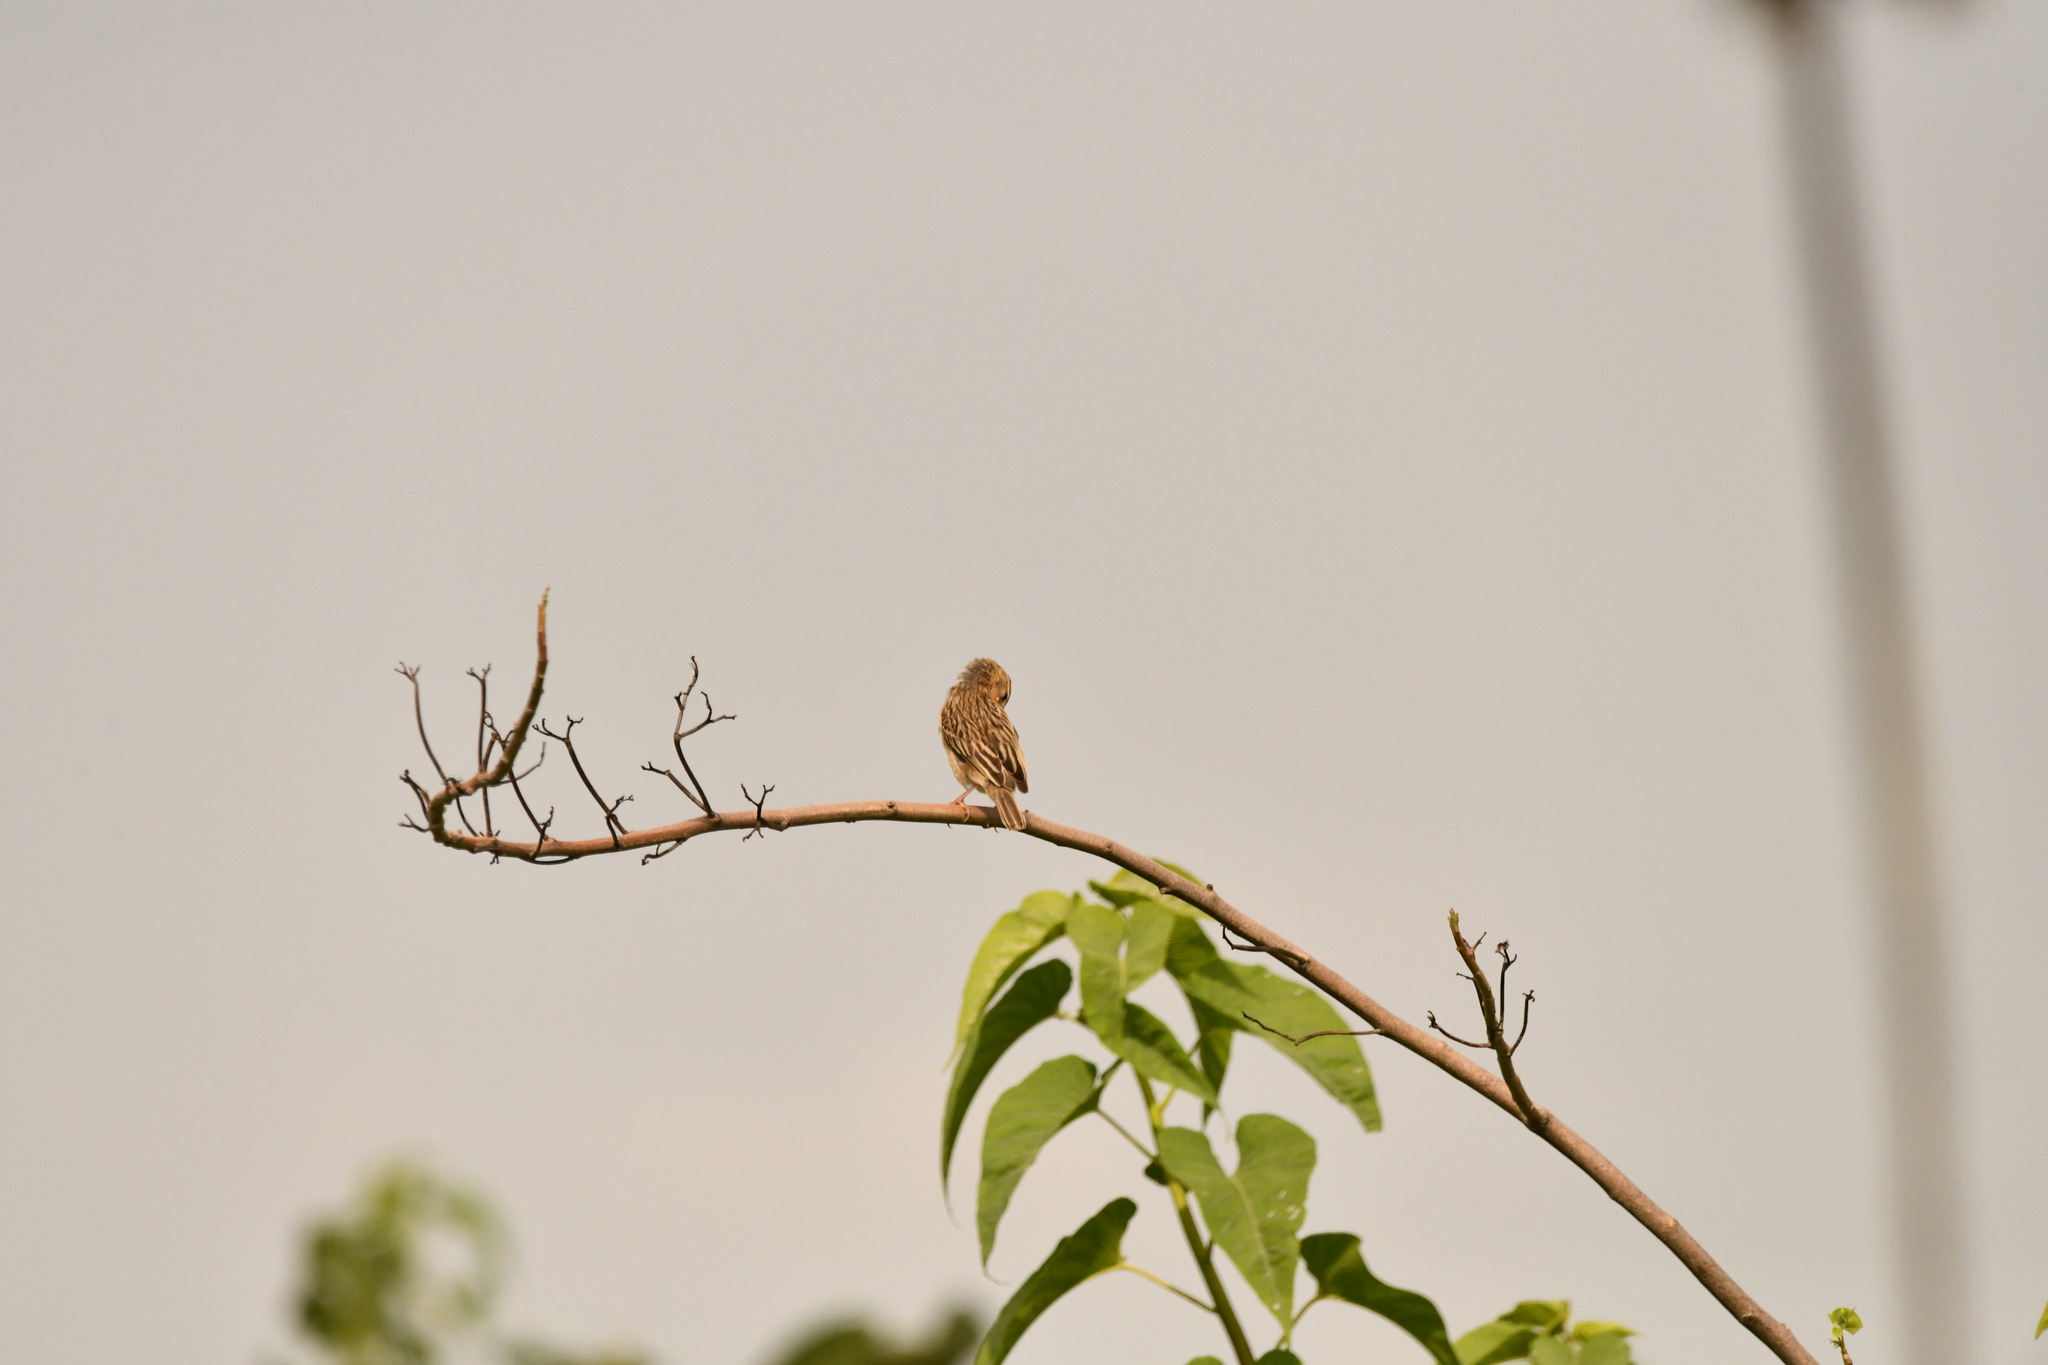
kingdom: Animalia
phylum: Chordata
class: Aves
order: Passeriformes
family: Ploceidae
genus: Ploceus
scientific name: Ploceus philippinus
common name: Baya weaver
